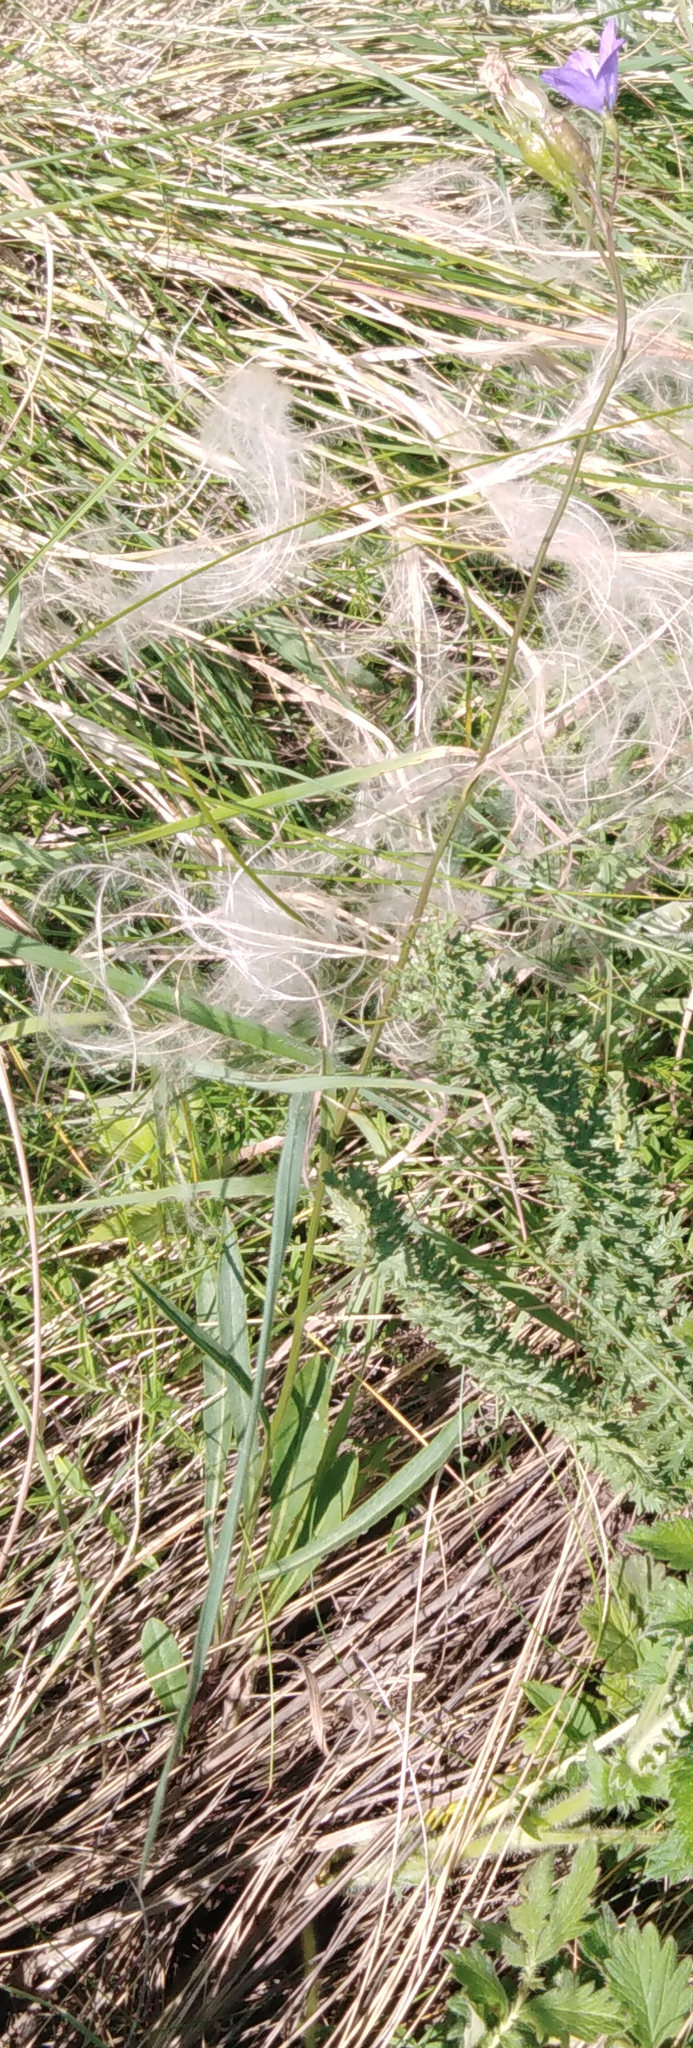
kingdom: Plantae
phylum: Tracheophyta
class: Magnoliopsida
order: Asterales
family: Campanulaceae
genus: Campanula
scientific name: Campanula stevenii
